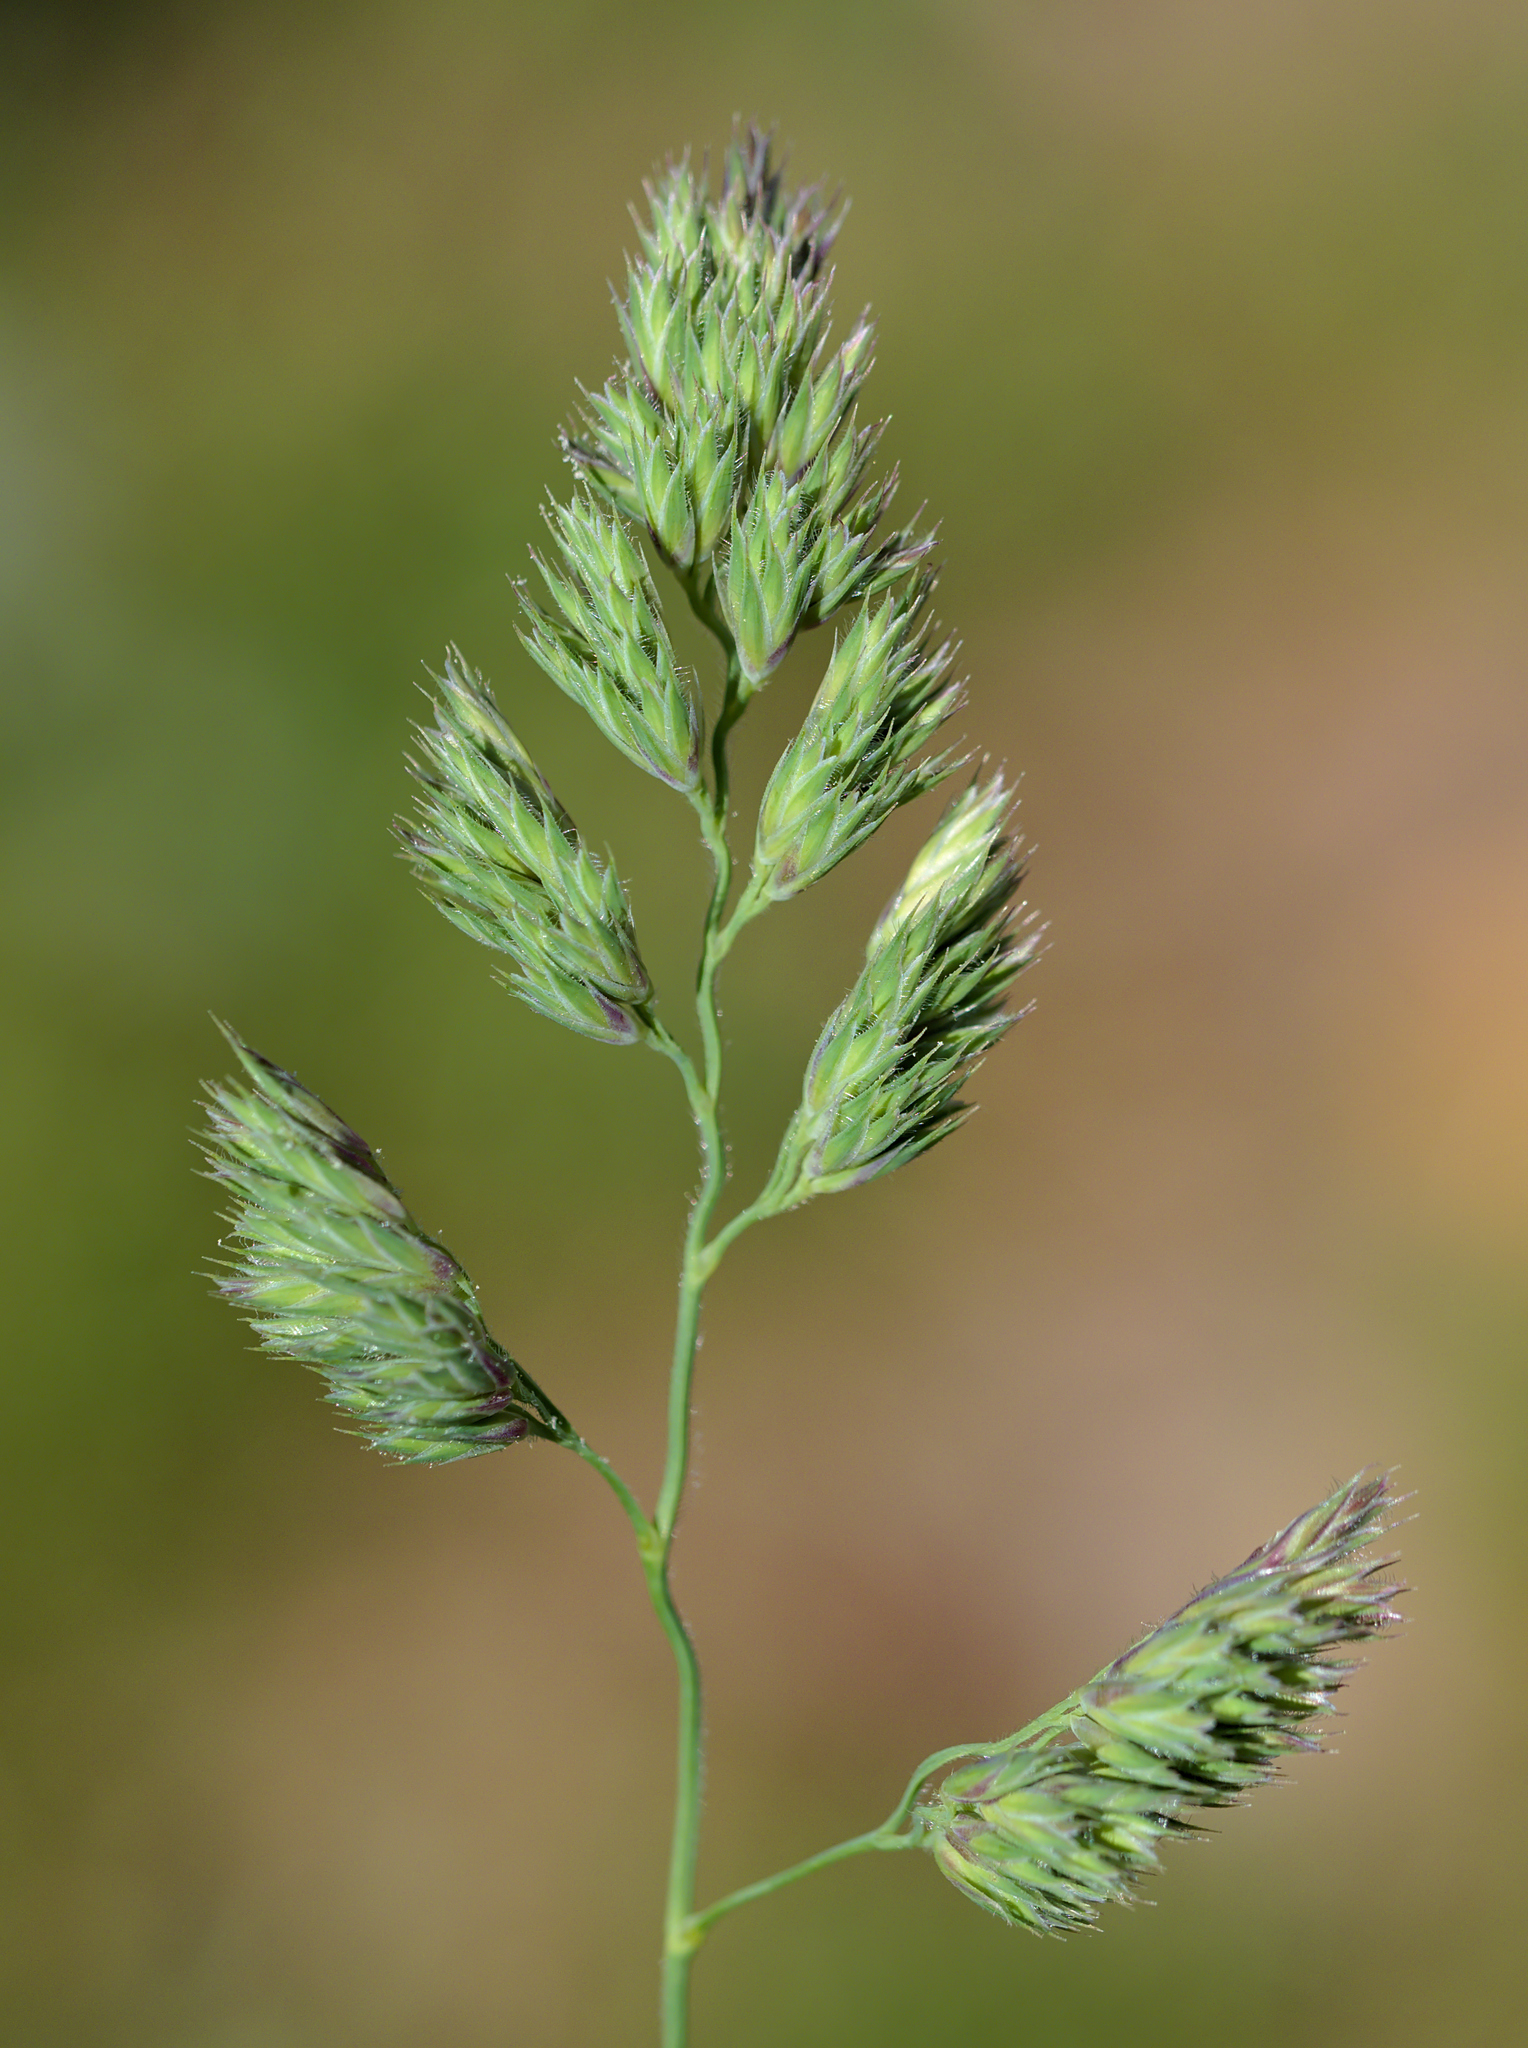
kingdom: Plantae
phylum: Tracheophyta
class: Liliopsida
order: Poales
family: Poaceae
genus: Dactylis
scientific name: Dactylis glomerata
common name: Orchardgrass
